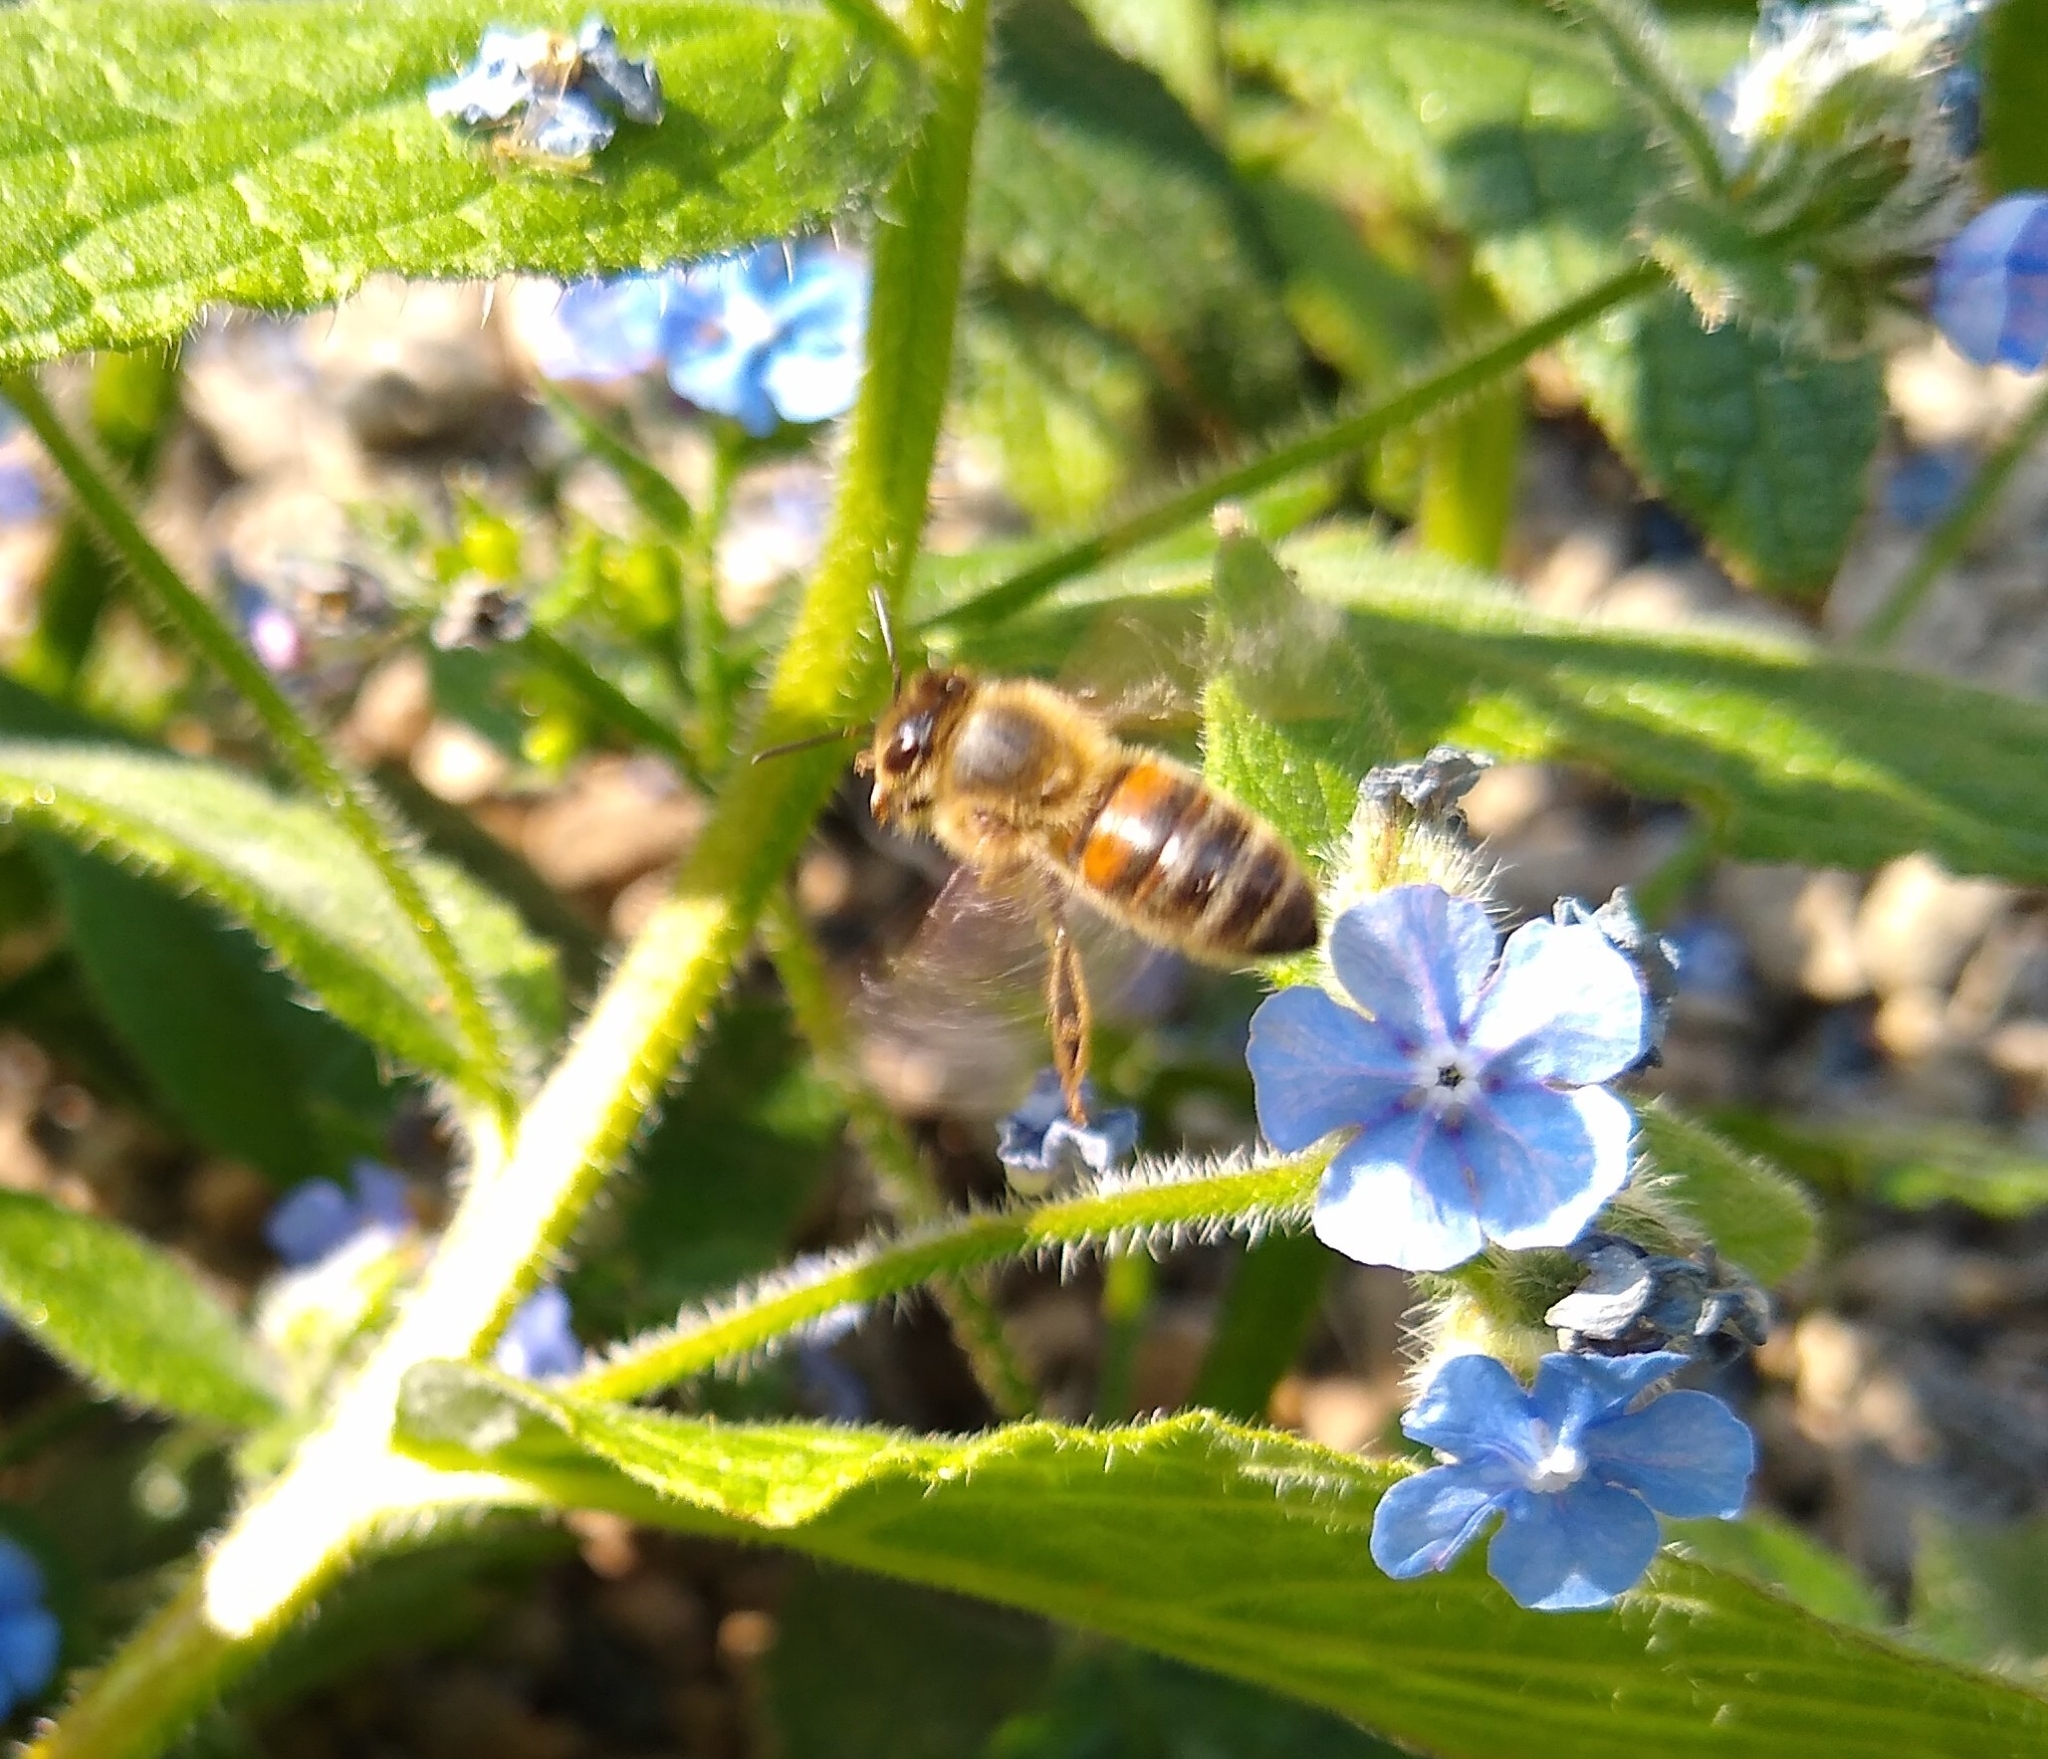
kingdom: Animalia
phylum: Arthropoda
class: Insecta
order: Hymenoptera
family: Apidae
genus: Apis
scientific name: Apis mellifera
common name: Honey bee
